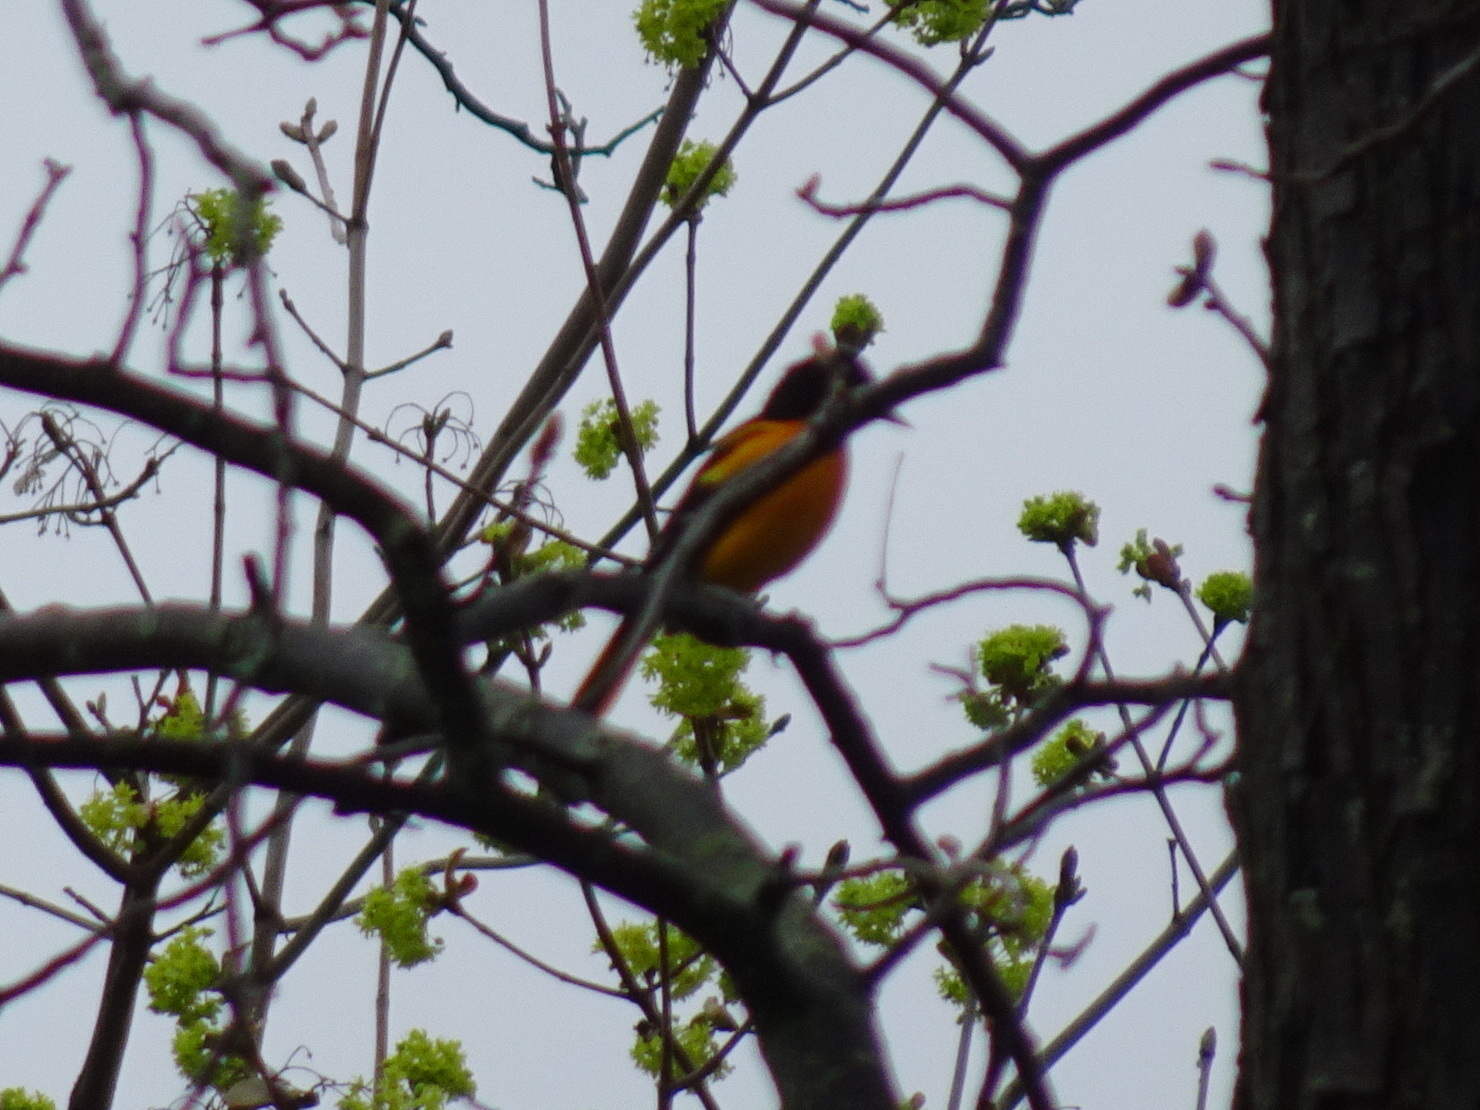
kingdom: Animalia
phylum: Chordata
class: Aves
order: Passeriformes
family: Icteridae
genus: Icterus
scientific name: Icterus galbula
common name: Baltimore oriole
